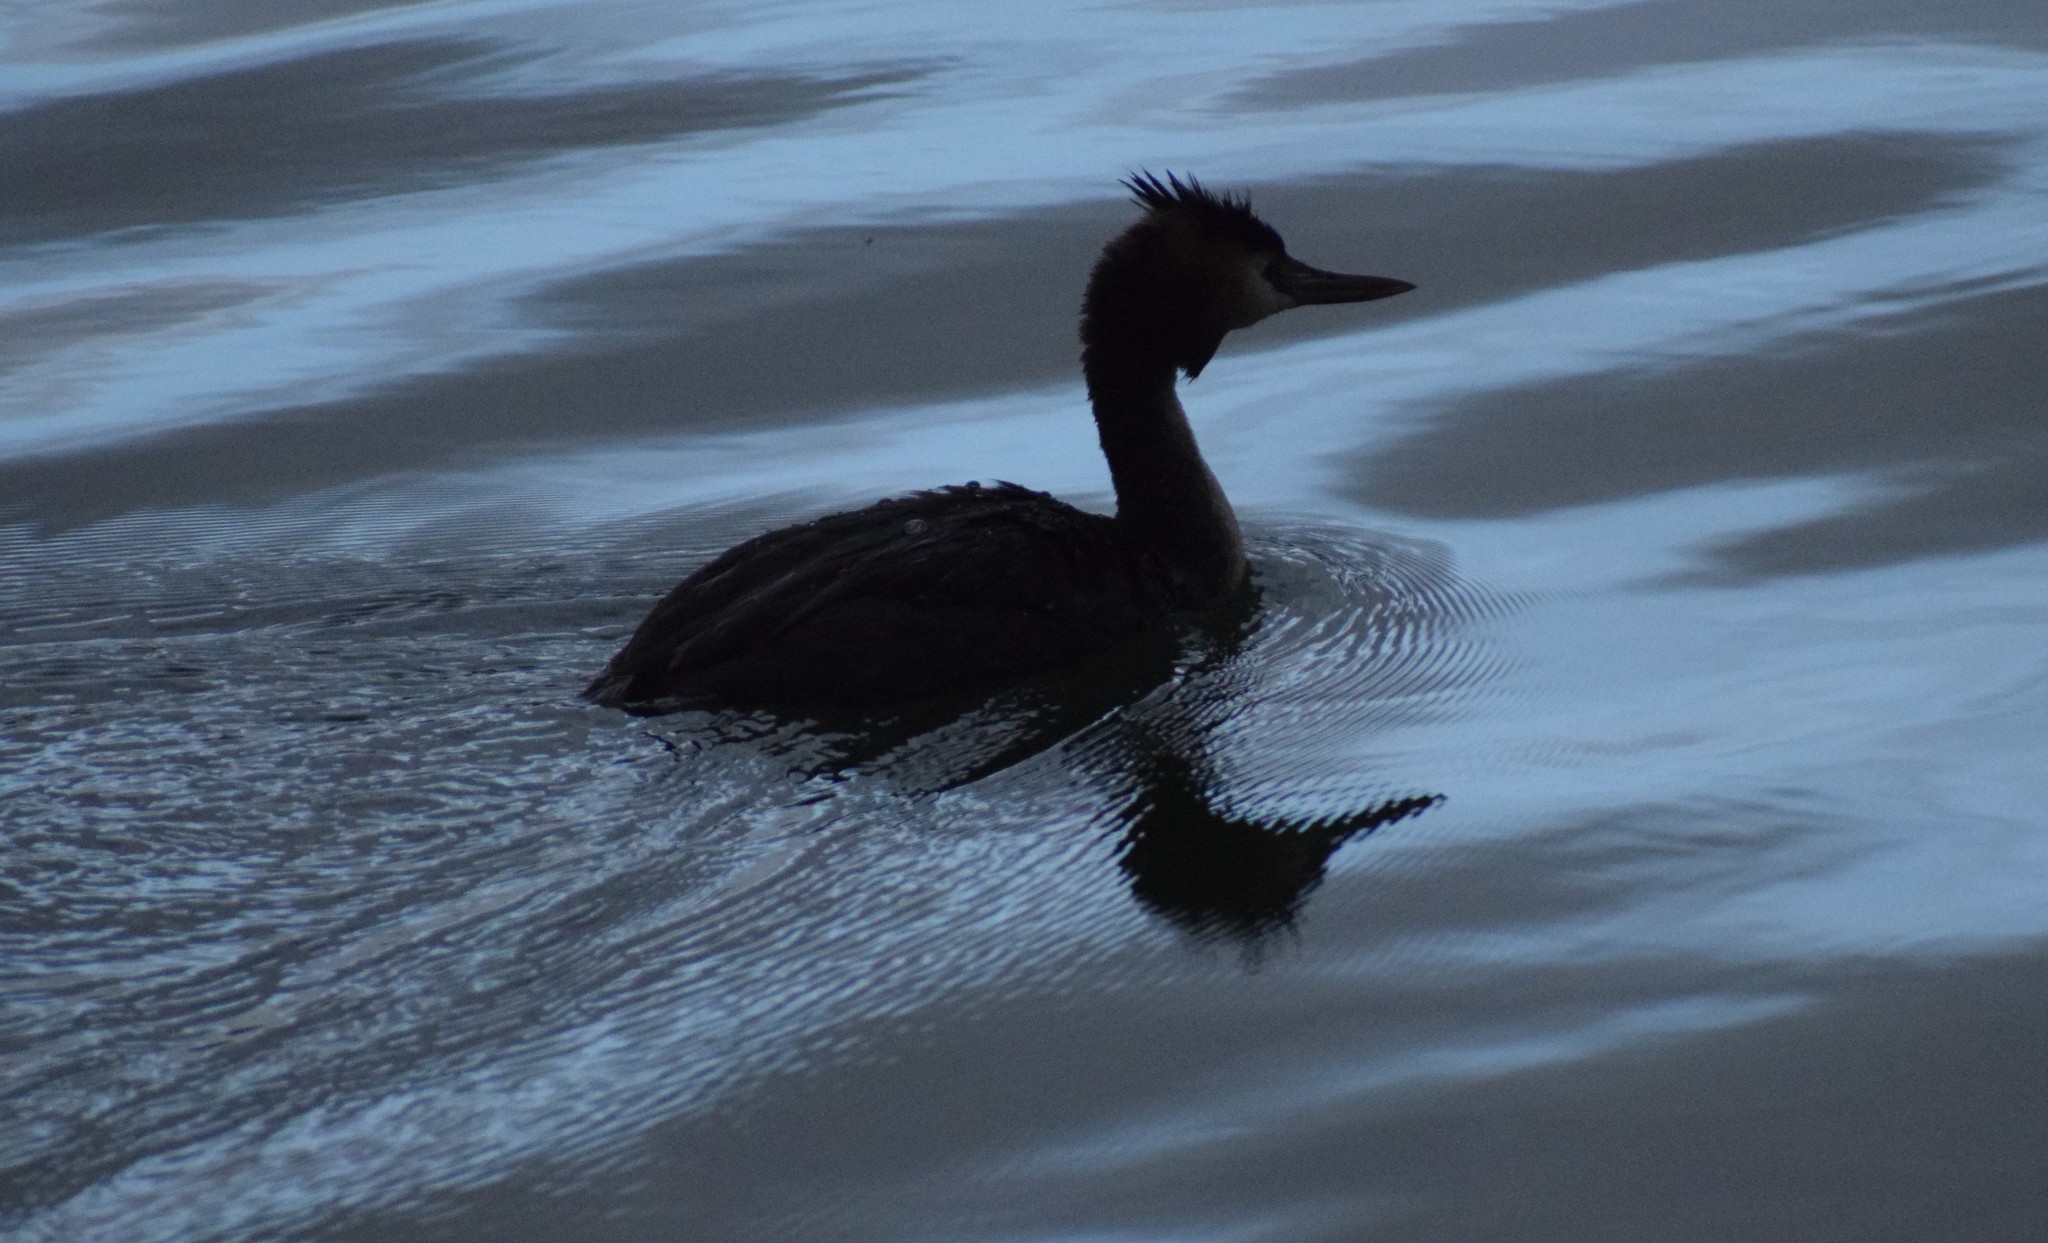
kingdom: Animalia
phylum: Chordata
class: Aves
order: Podicipediformes
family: Podicipedidae
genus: Podiceps
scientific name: Podiceps cristatus
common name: Great crested grebe
